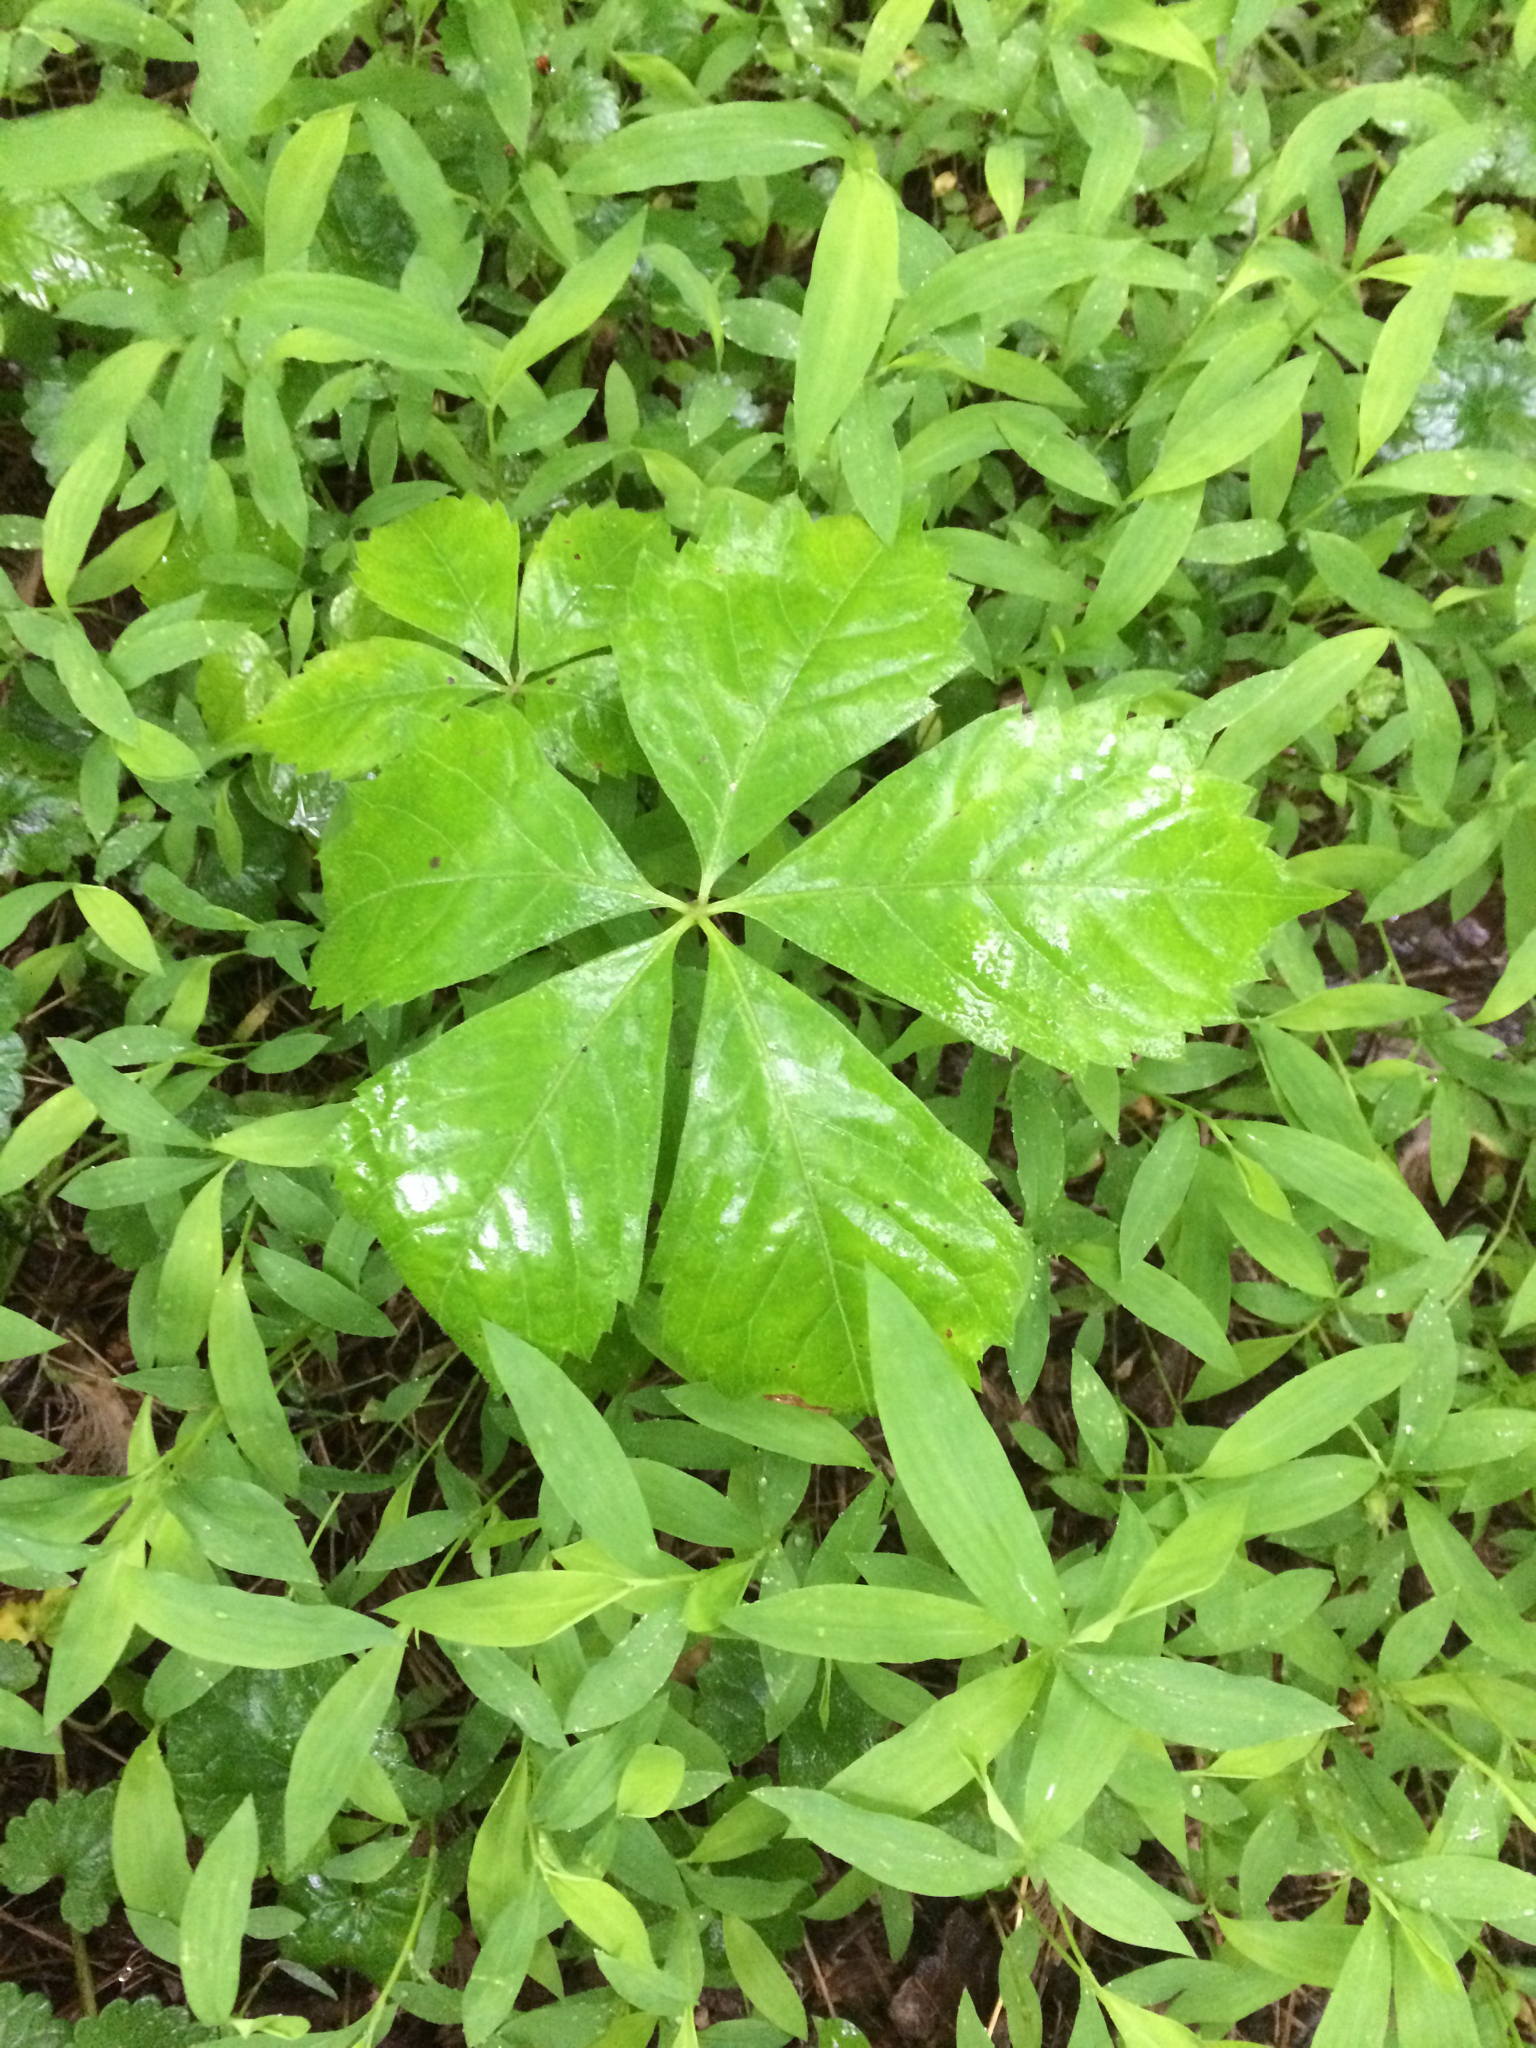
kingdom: Plantae
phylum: Tracheophyta
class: Magnoliopsida
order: Vitales
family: Vitaceae
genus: Parthenocissus
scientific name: Parthenocissus quinquefolia
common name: Virginia-creeper
